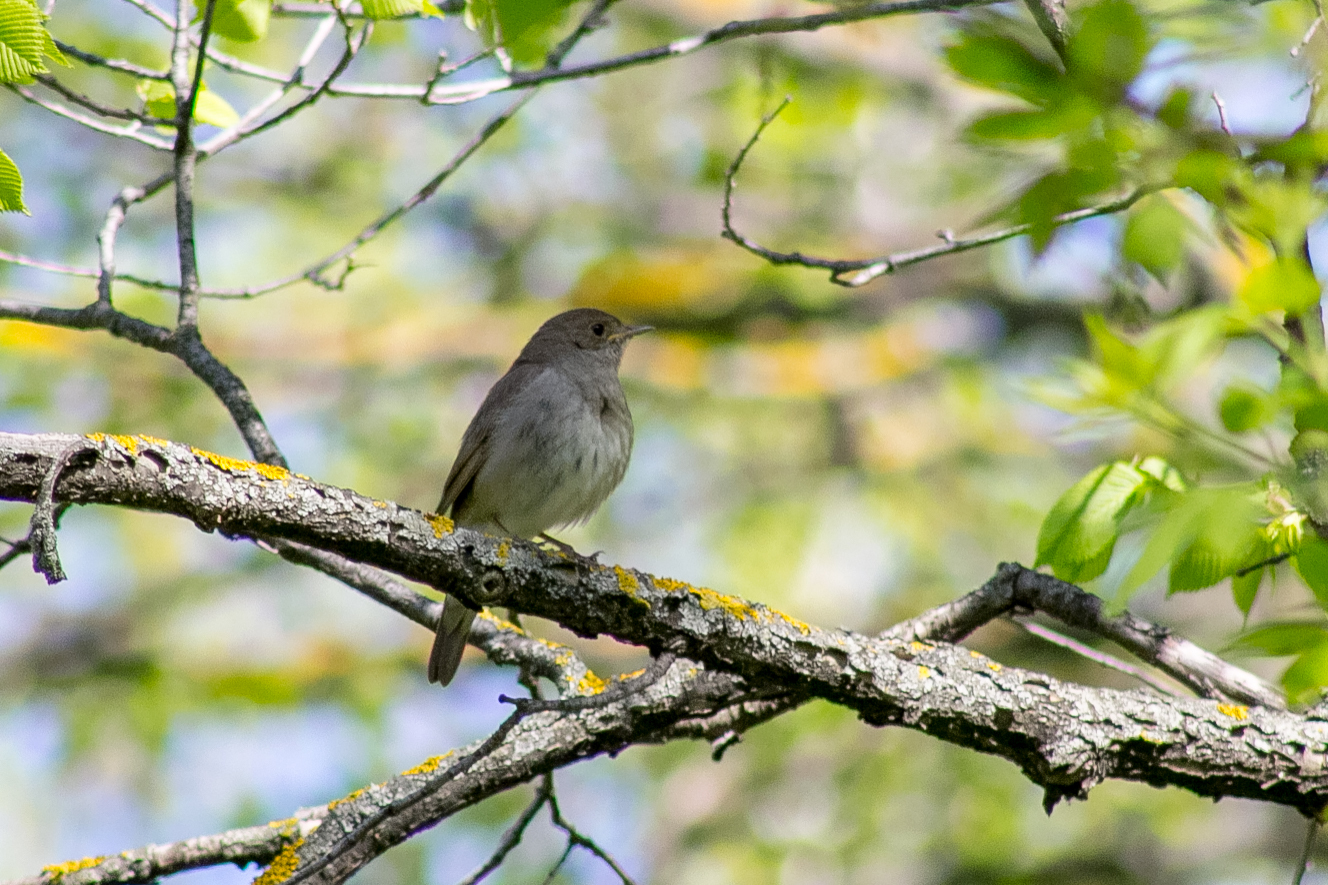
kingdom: Animalia
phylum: Chordata
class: Aves
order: Passeriformes
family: Muscicapidae
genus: Luscinia
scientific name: Luscinia luscinia
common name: Thrush nightingale
